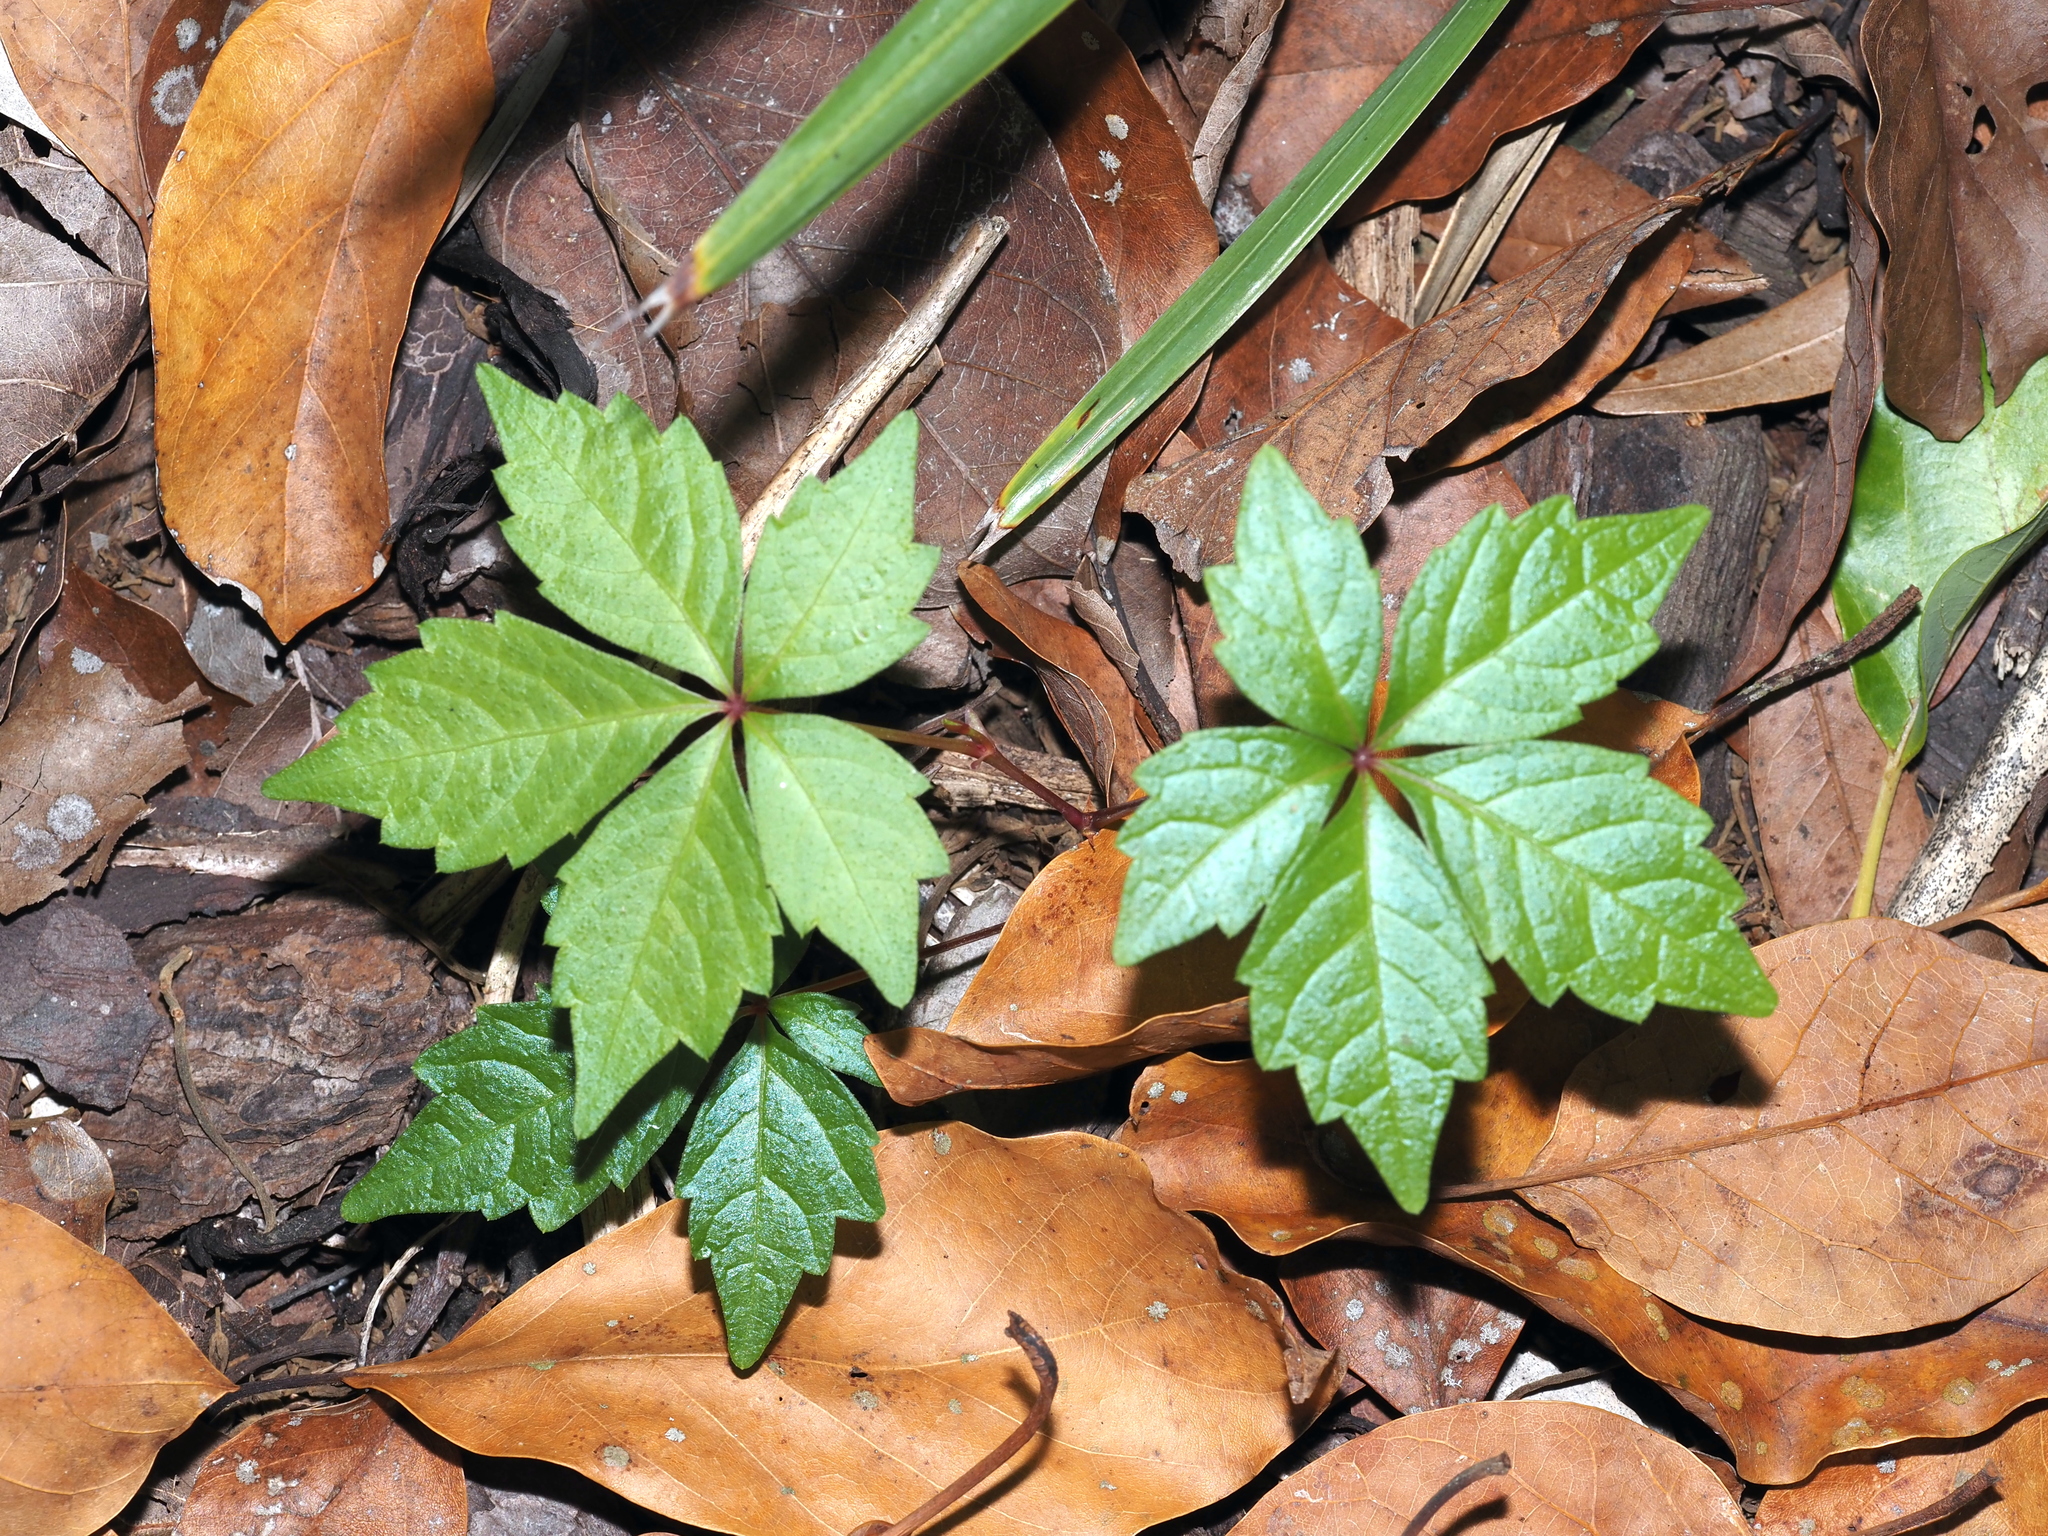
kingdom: Plantae
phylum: Tracheophyta
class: Magnoliopsida
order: Vitales
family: Vitaceae
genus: Parthenocissus
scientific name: Parthenocissus quinquefolia
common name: Virginia-creeper
